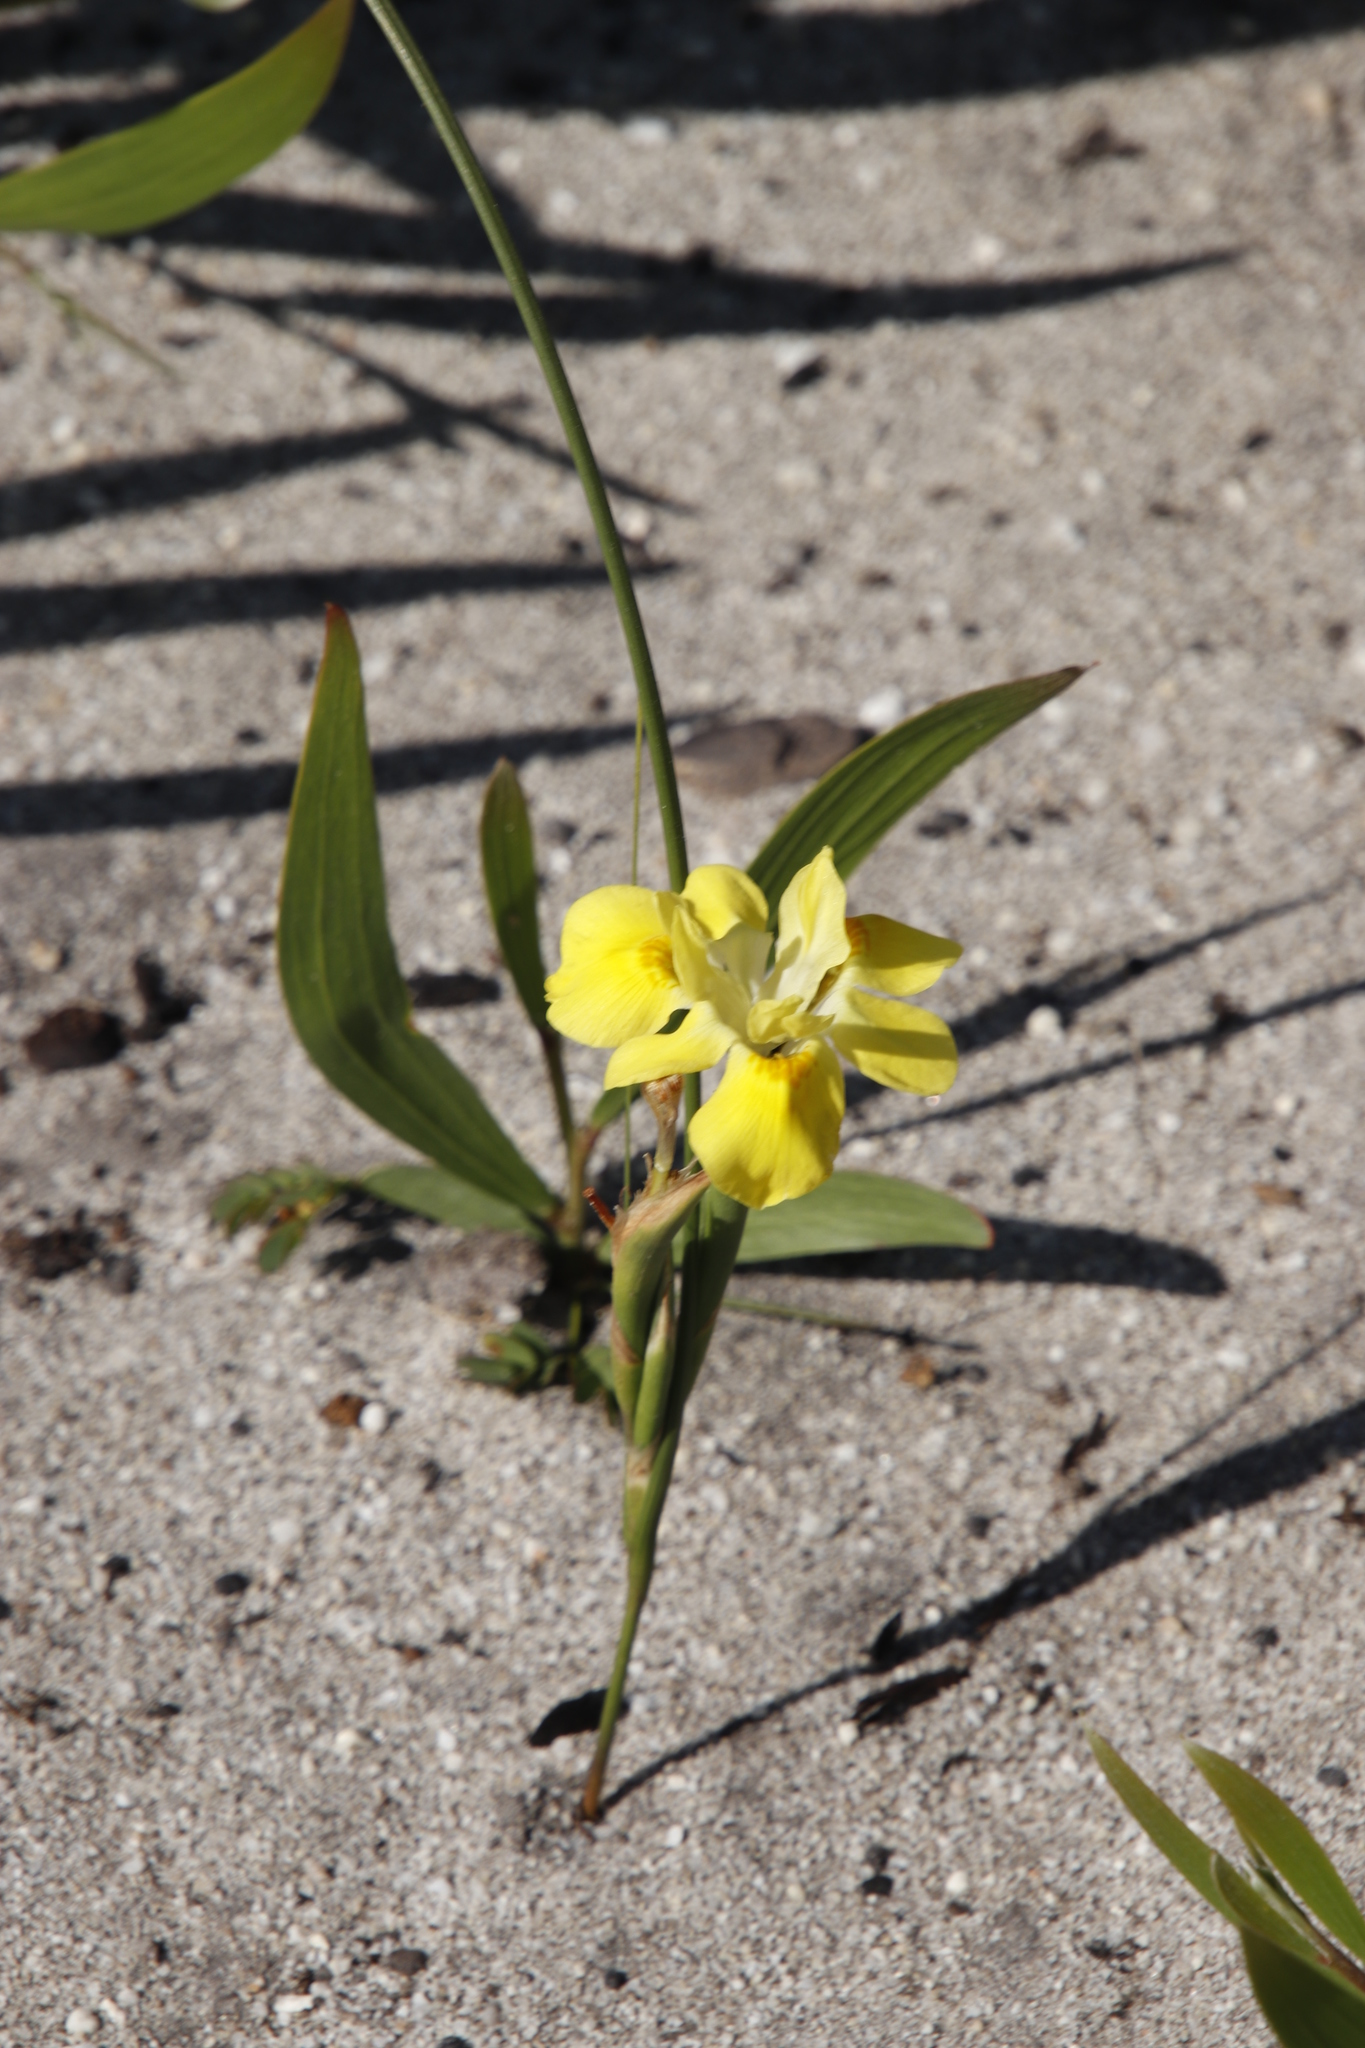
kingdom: Plantae
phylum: Tracheophyta
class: Liliopsida
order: Asparagales
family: Iridaceae
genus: Moraea
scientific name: Moraea fugax
